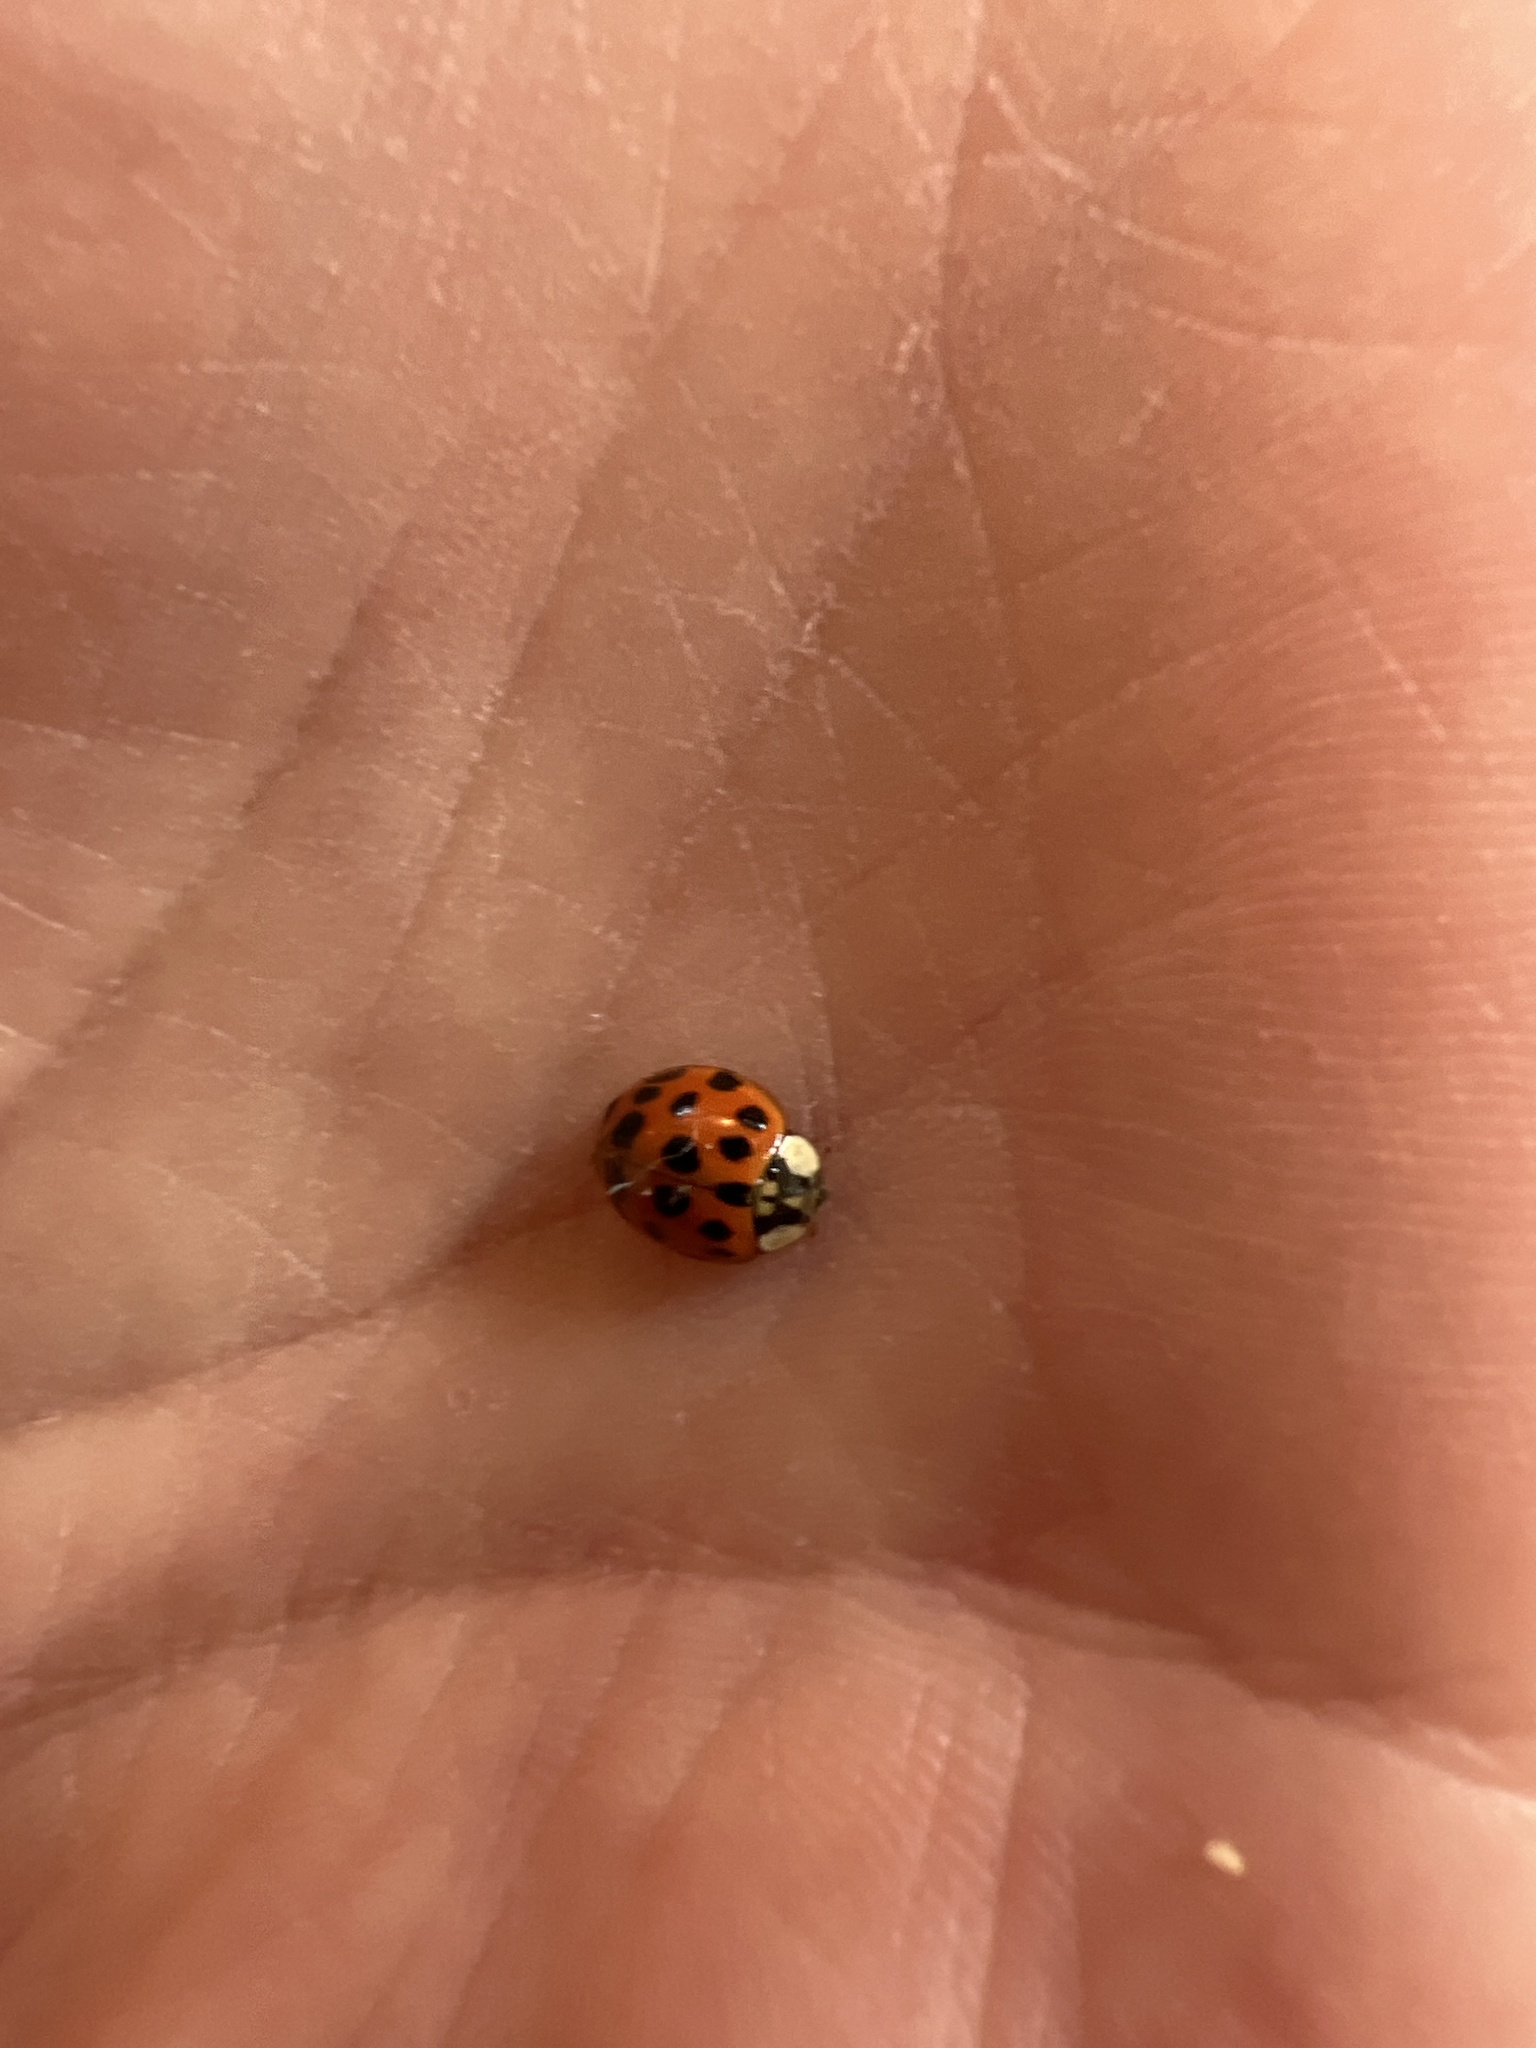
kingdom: Animalia
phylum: Arthropoda
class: Insecta
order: Coleoptera
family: Coccinellidae
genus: Harmonia
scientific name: Harmonia axyridis
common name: Harlequin ladybird
